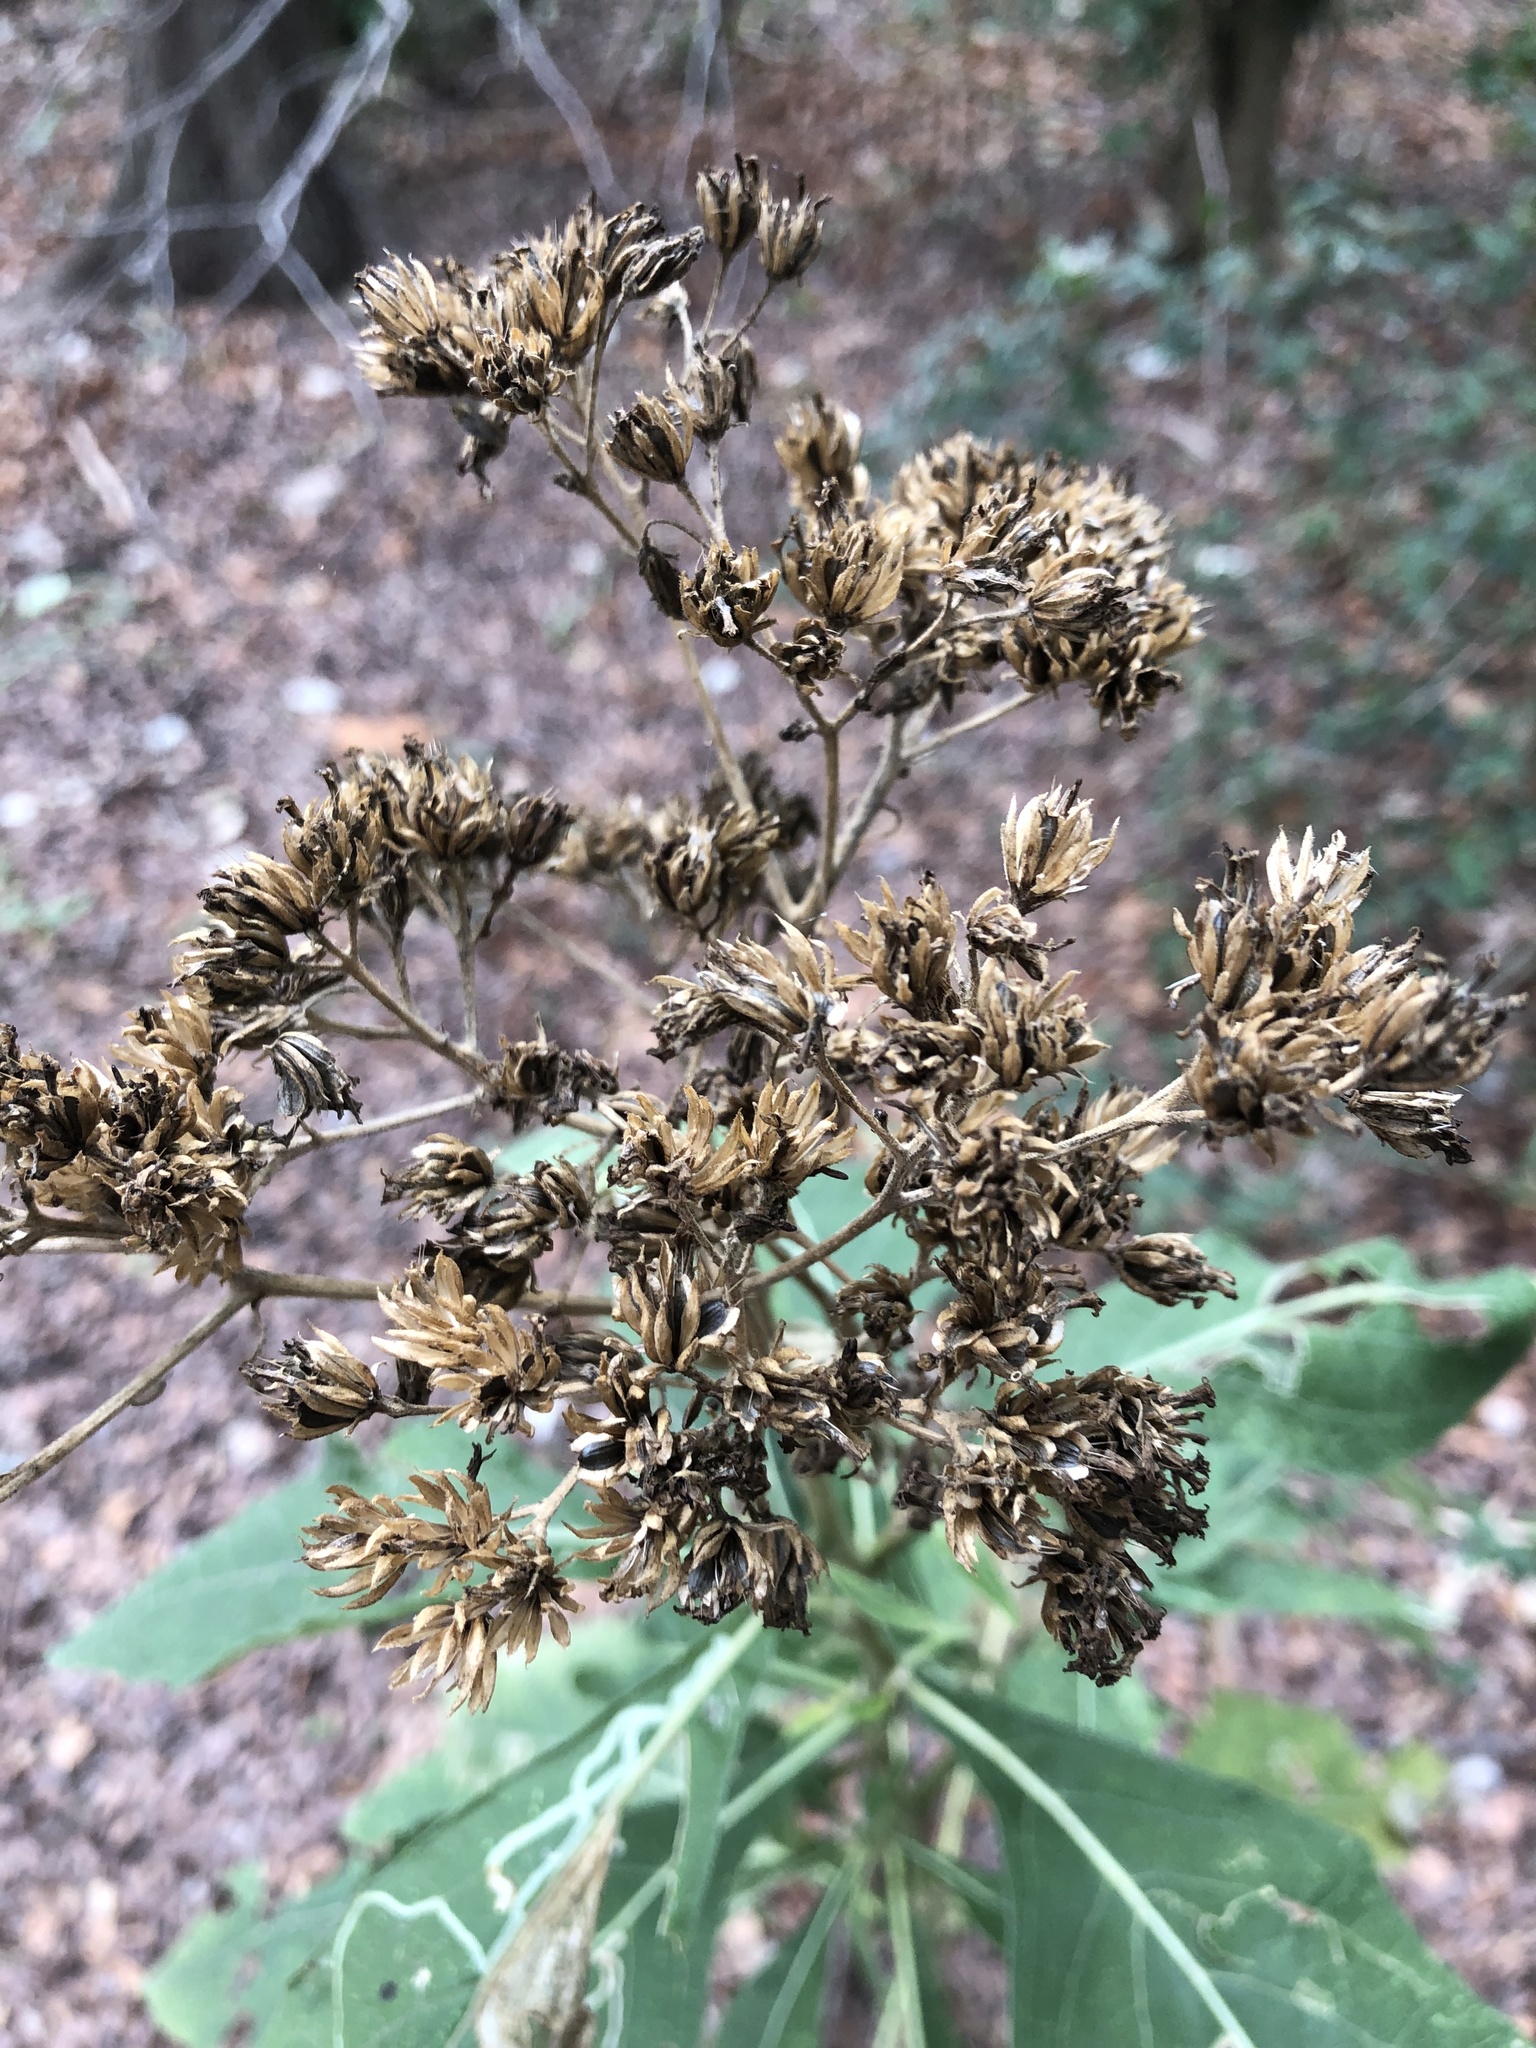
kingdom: Plantae
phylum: Tracheophyta
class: Magnoliopsida
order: Asterales
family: Asteraceae
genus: Verbesina
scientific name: Verbesina virginica
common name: Frostweed
